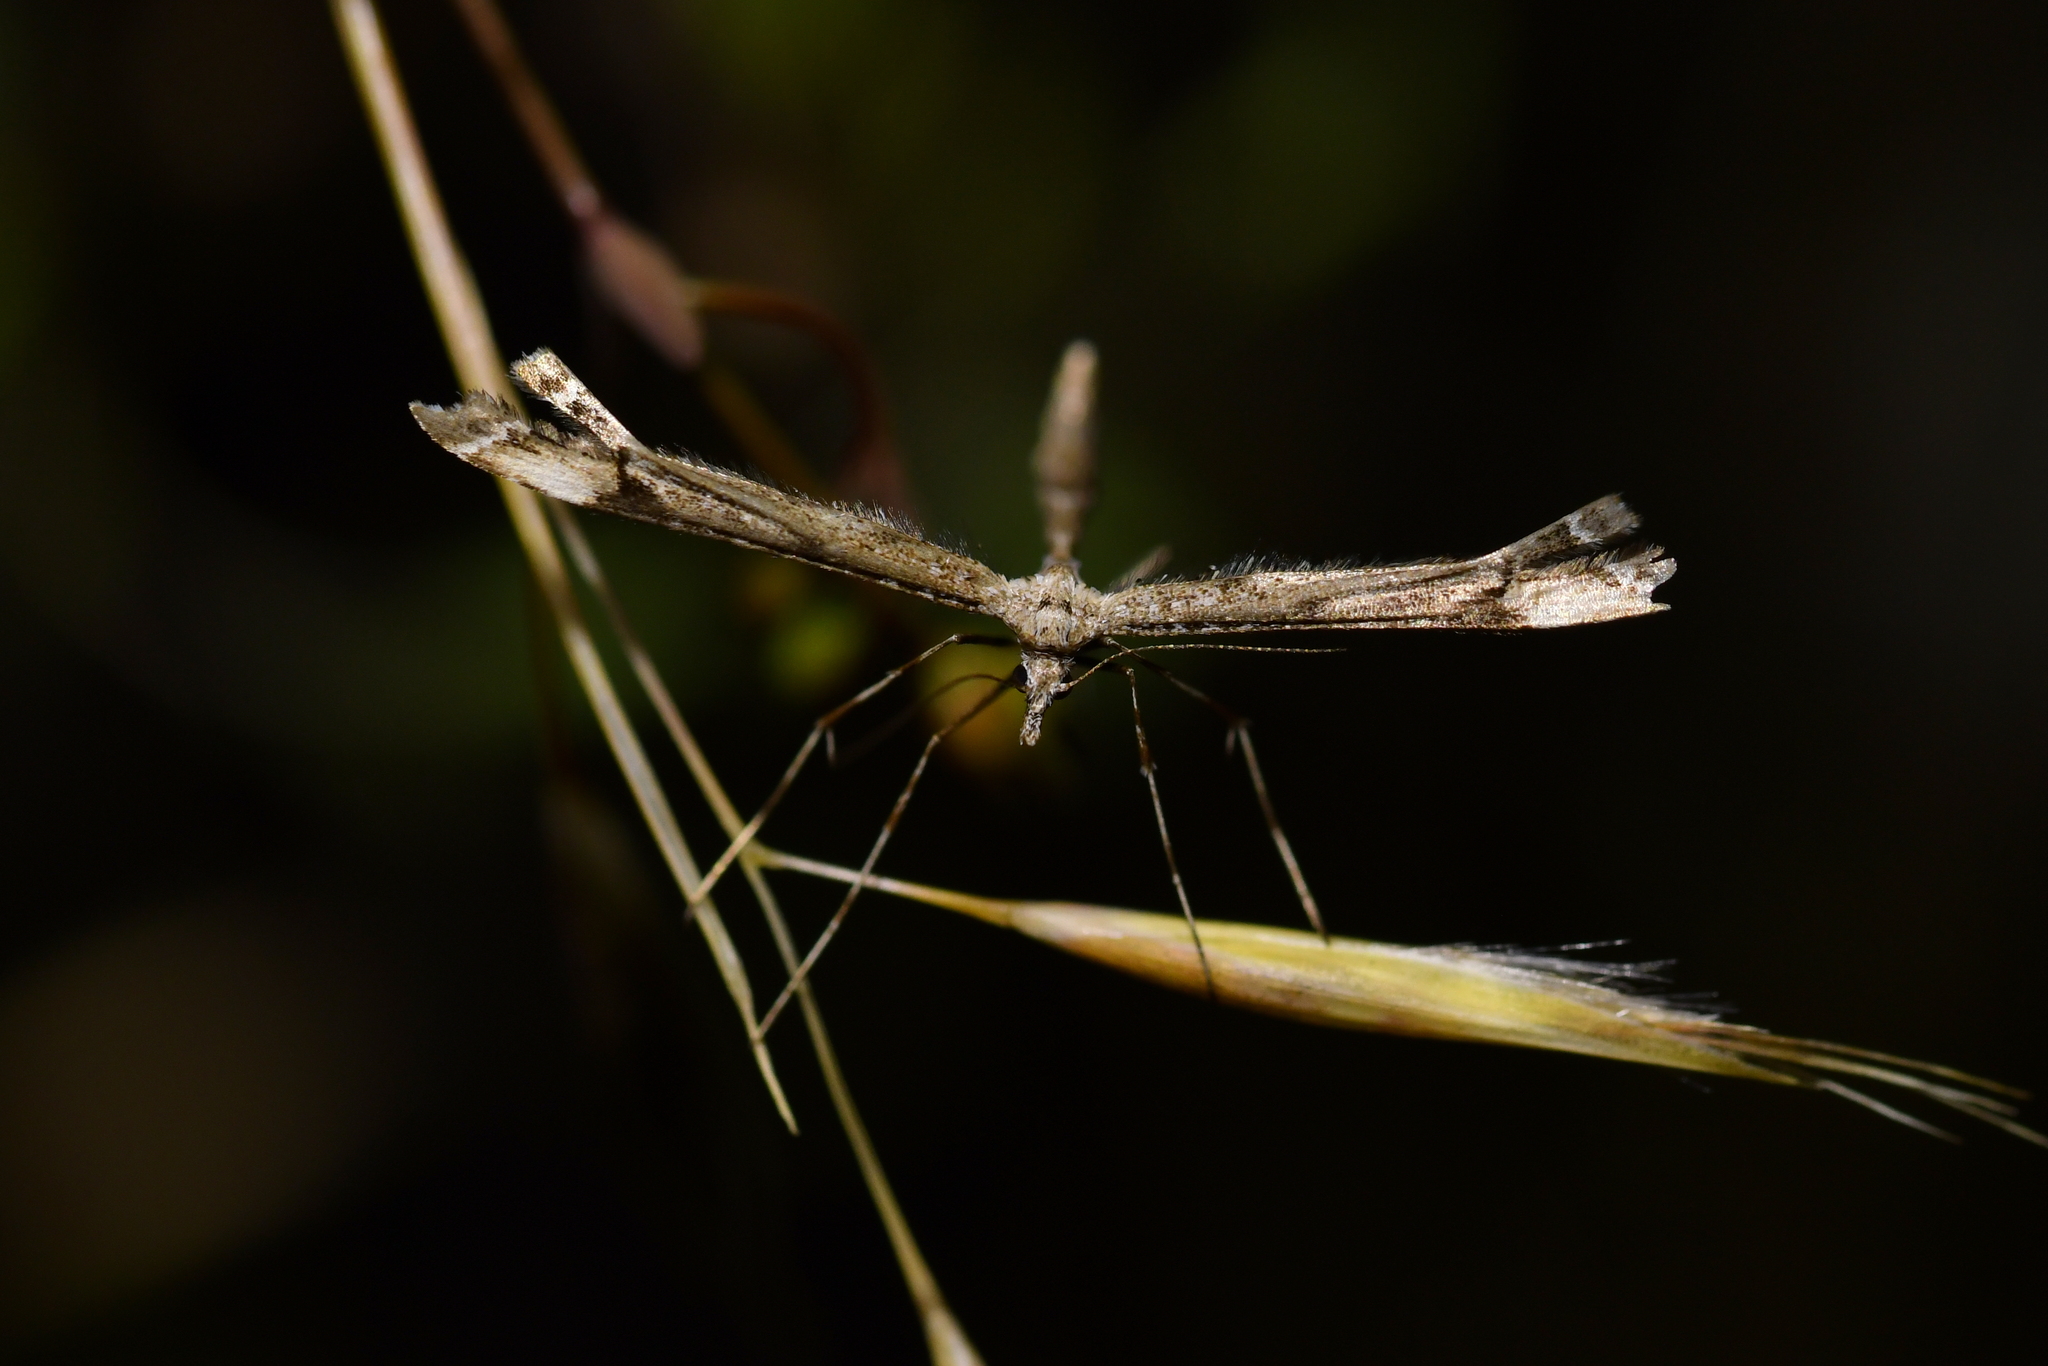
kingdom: Animalia
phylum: Arthropoda
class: Insecta
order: Lepidoptera
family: Pterophoridae
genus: Amblyptilia
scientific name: Amblyptilia repletalis
